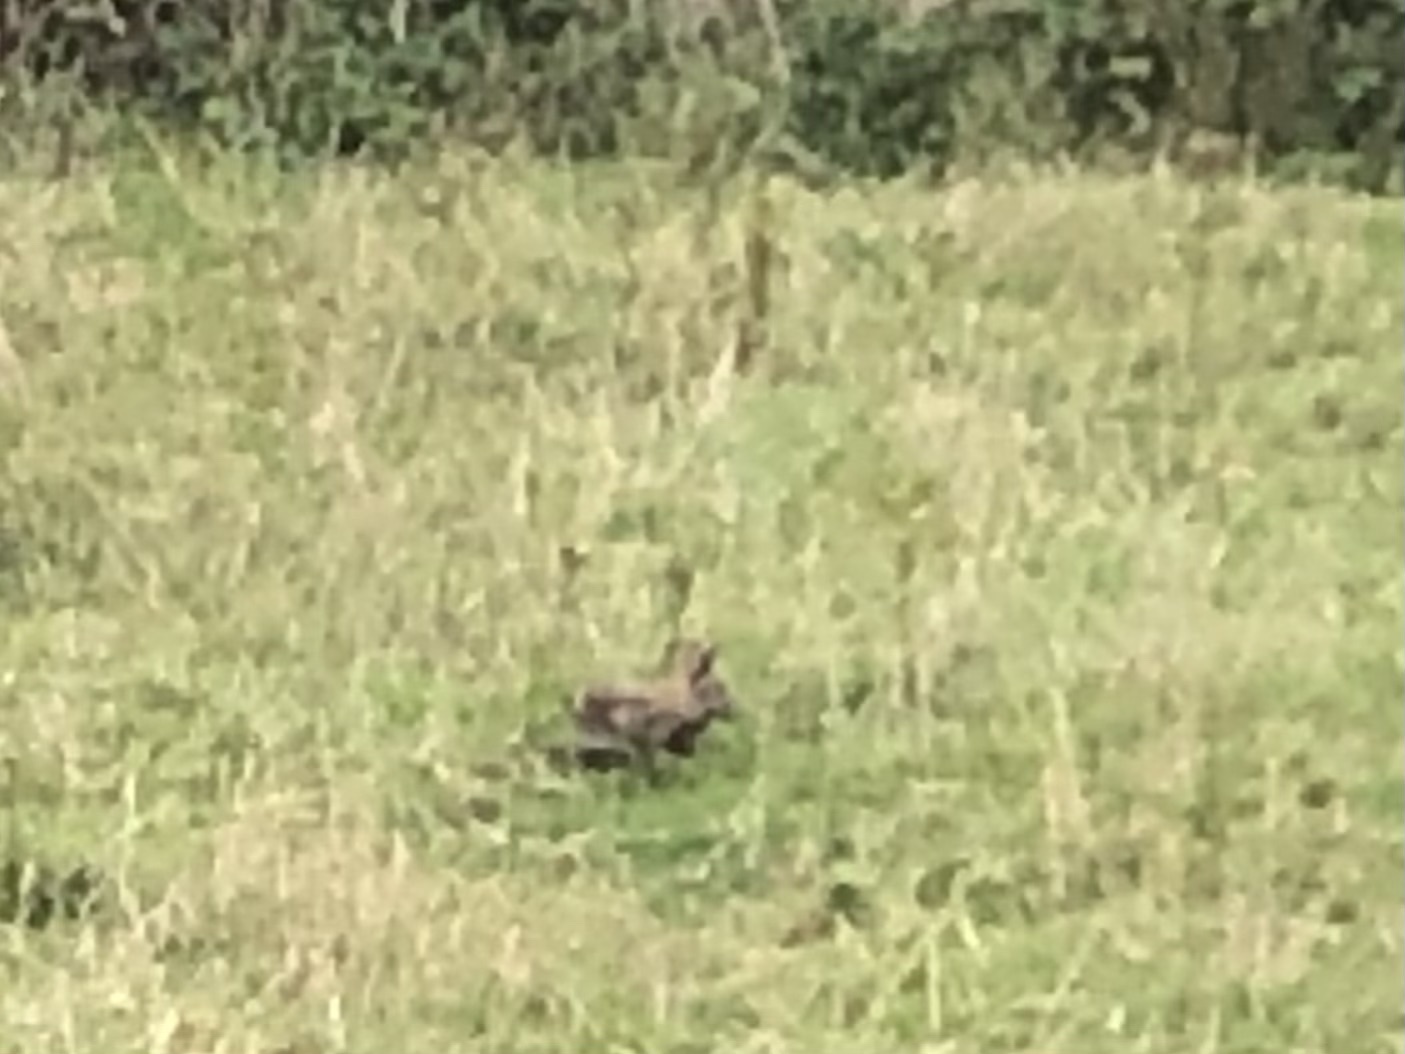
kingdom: Animalia
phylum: Chordata
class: Mammalia
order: Lagomorpha
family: Leporidae
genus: Oryctolagus
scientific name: Oryctolagus cuniculus
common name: European rabbit
